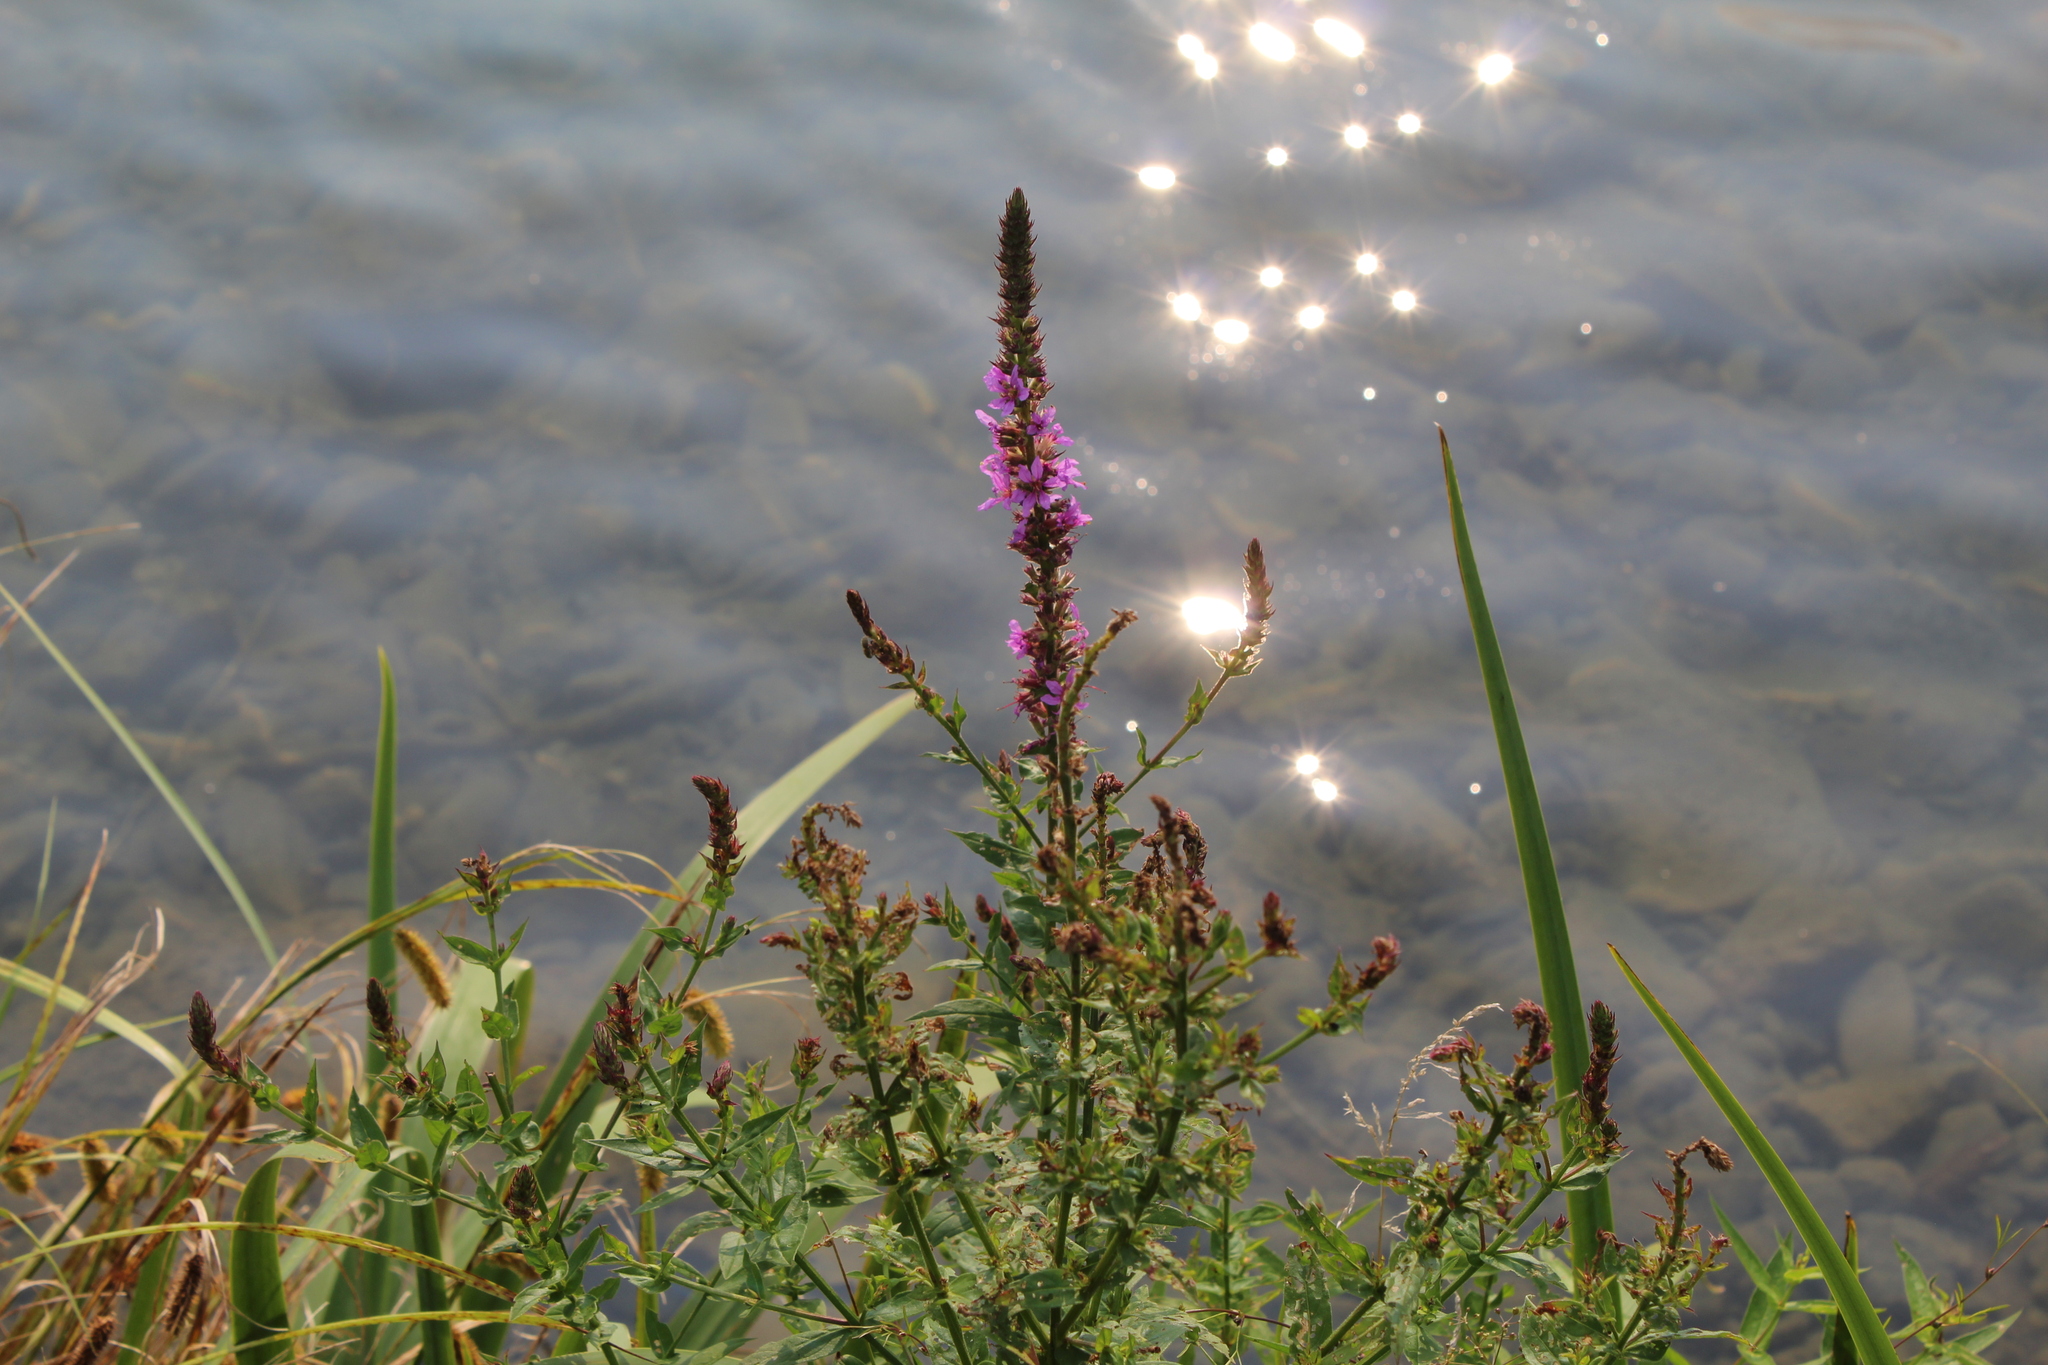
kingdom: Plantae
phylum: Tracheophyta
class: Magnoliopsida
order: Myrtales
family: Lythraceae
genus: Lythrum
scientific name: Lythrum salicaria
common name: Purple loosestrife
